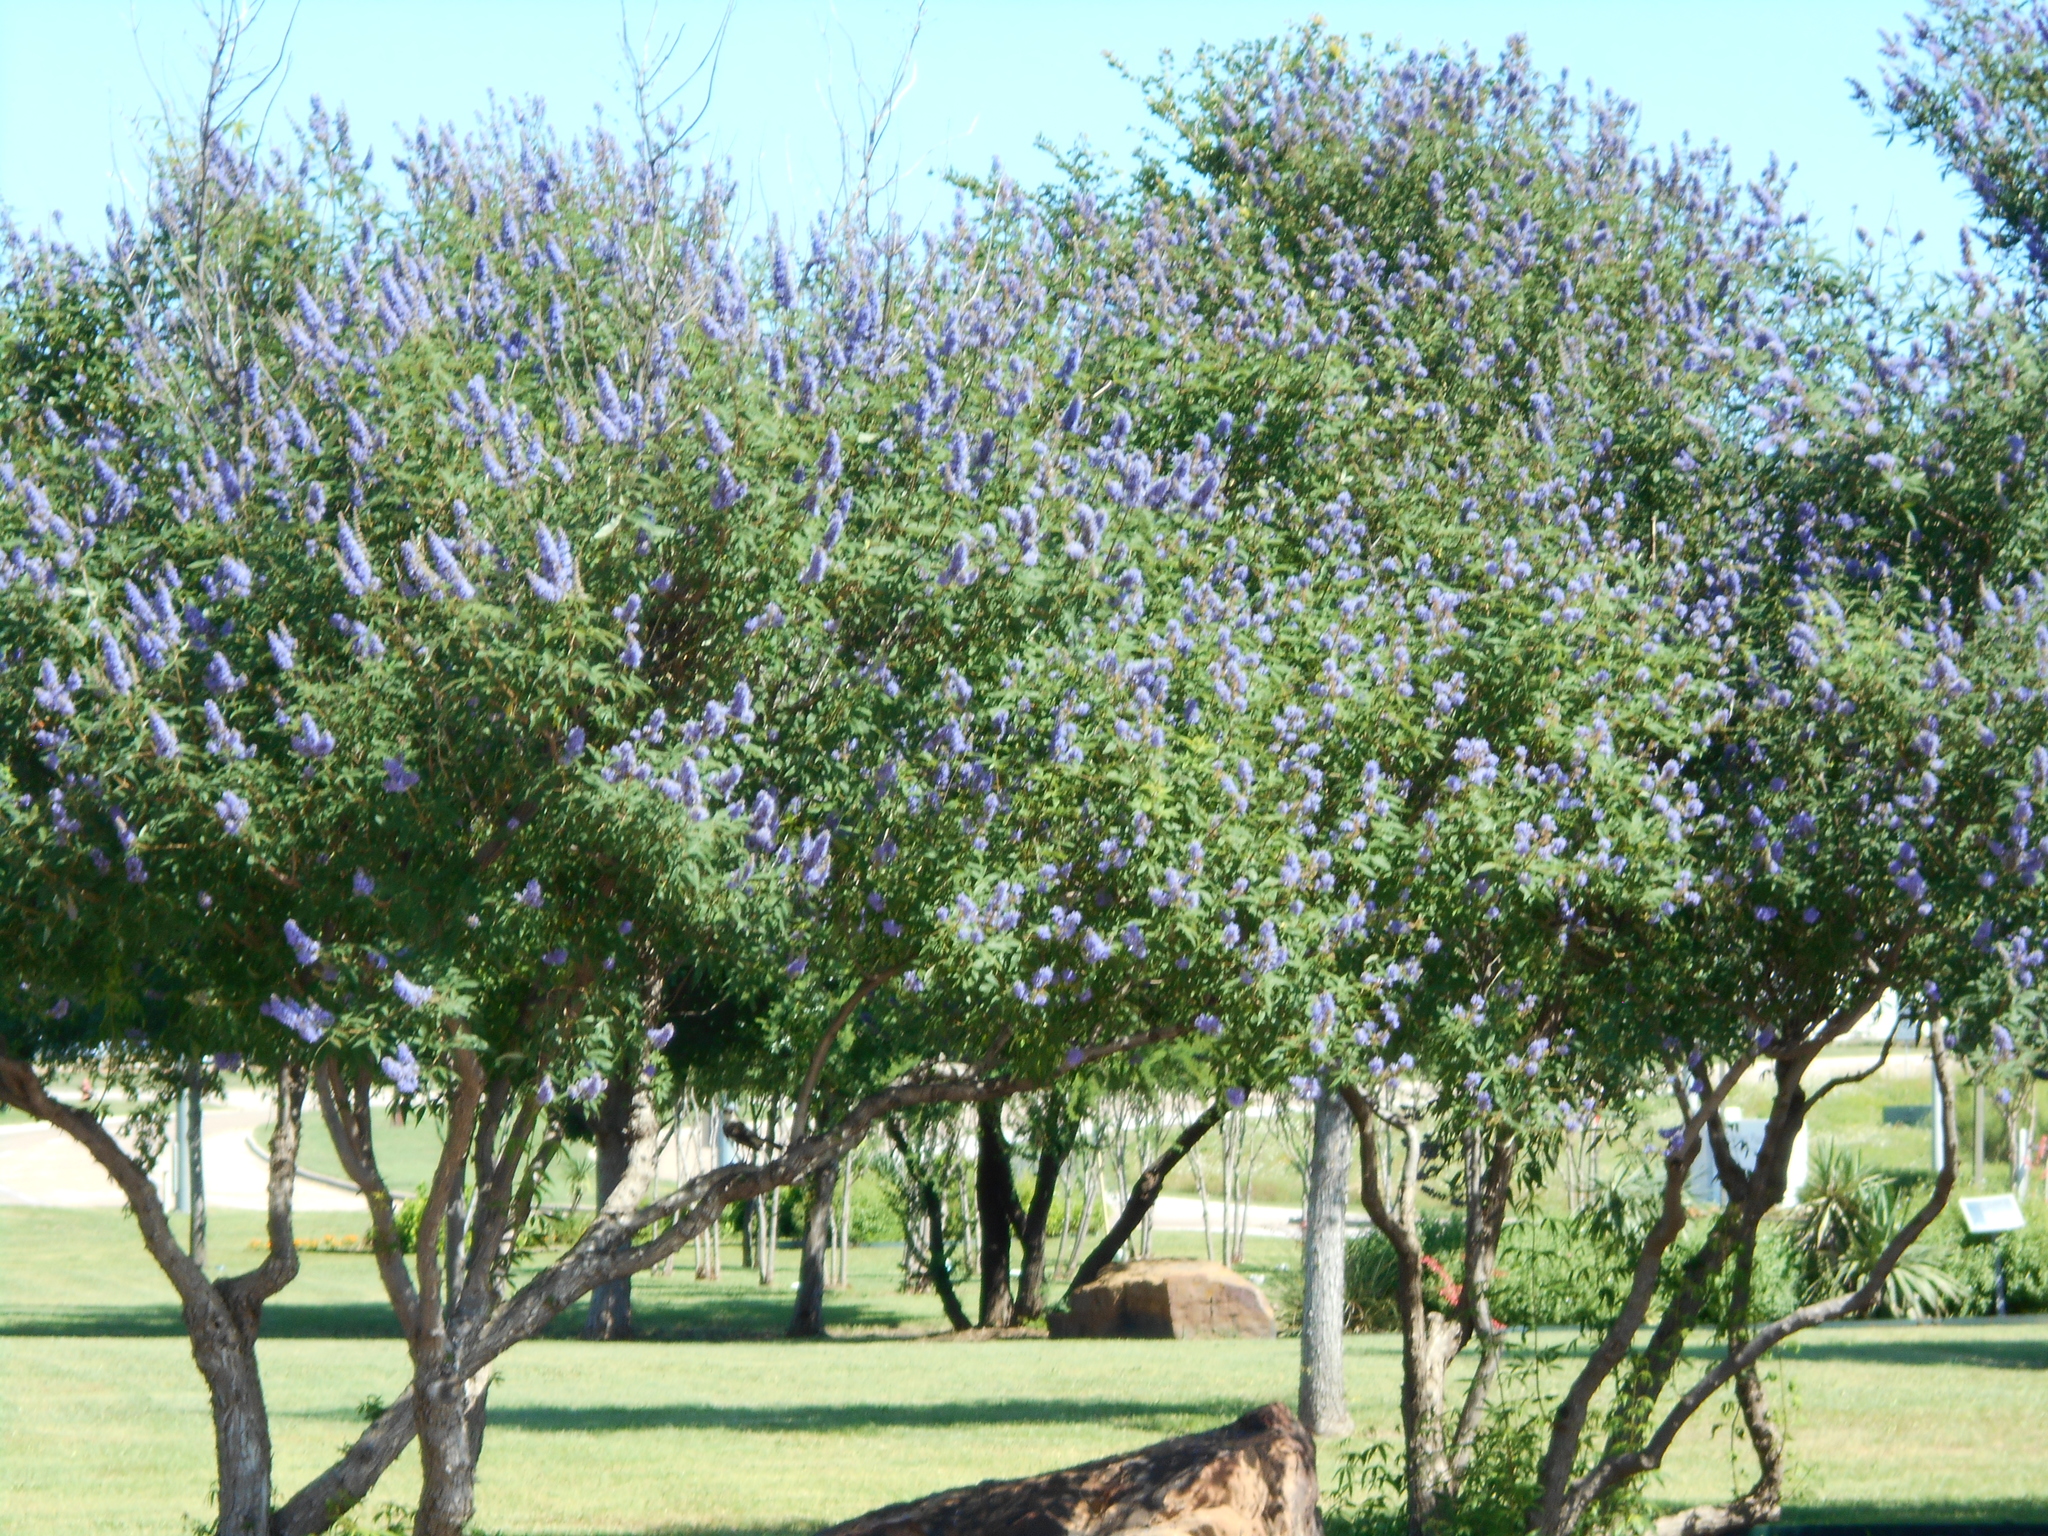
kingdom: Animalia
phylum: Chordata
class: Aves
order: Passeriformes
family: Mimidae
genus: Mimus
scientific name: Mimus polyglottos
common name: Northern mockingbird
